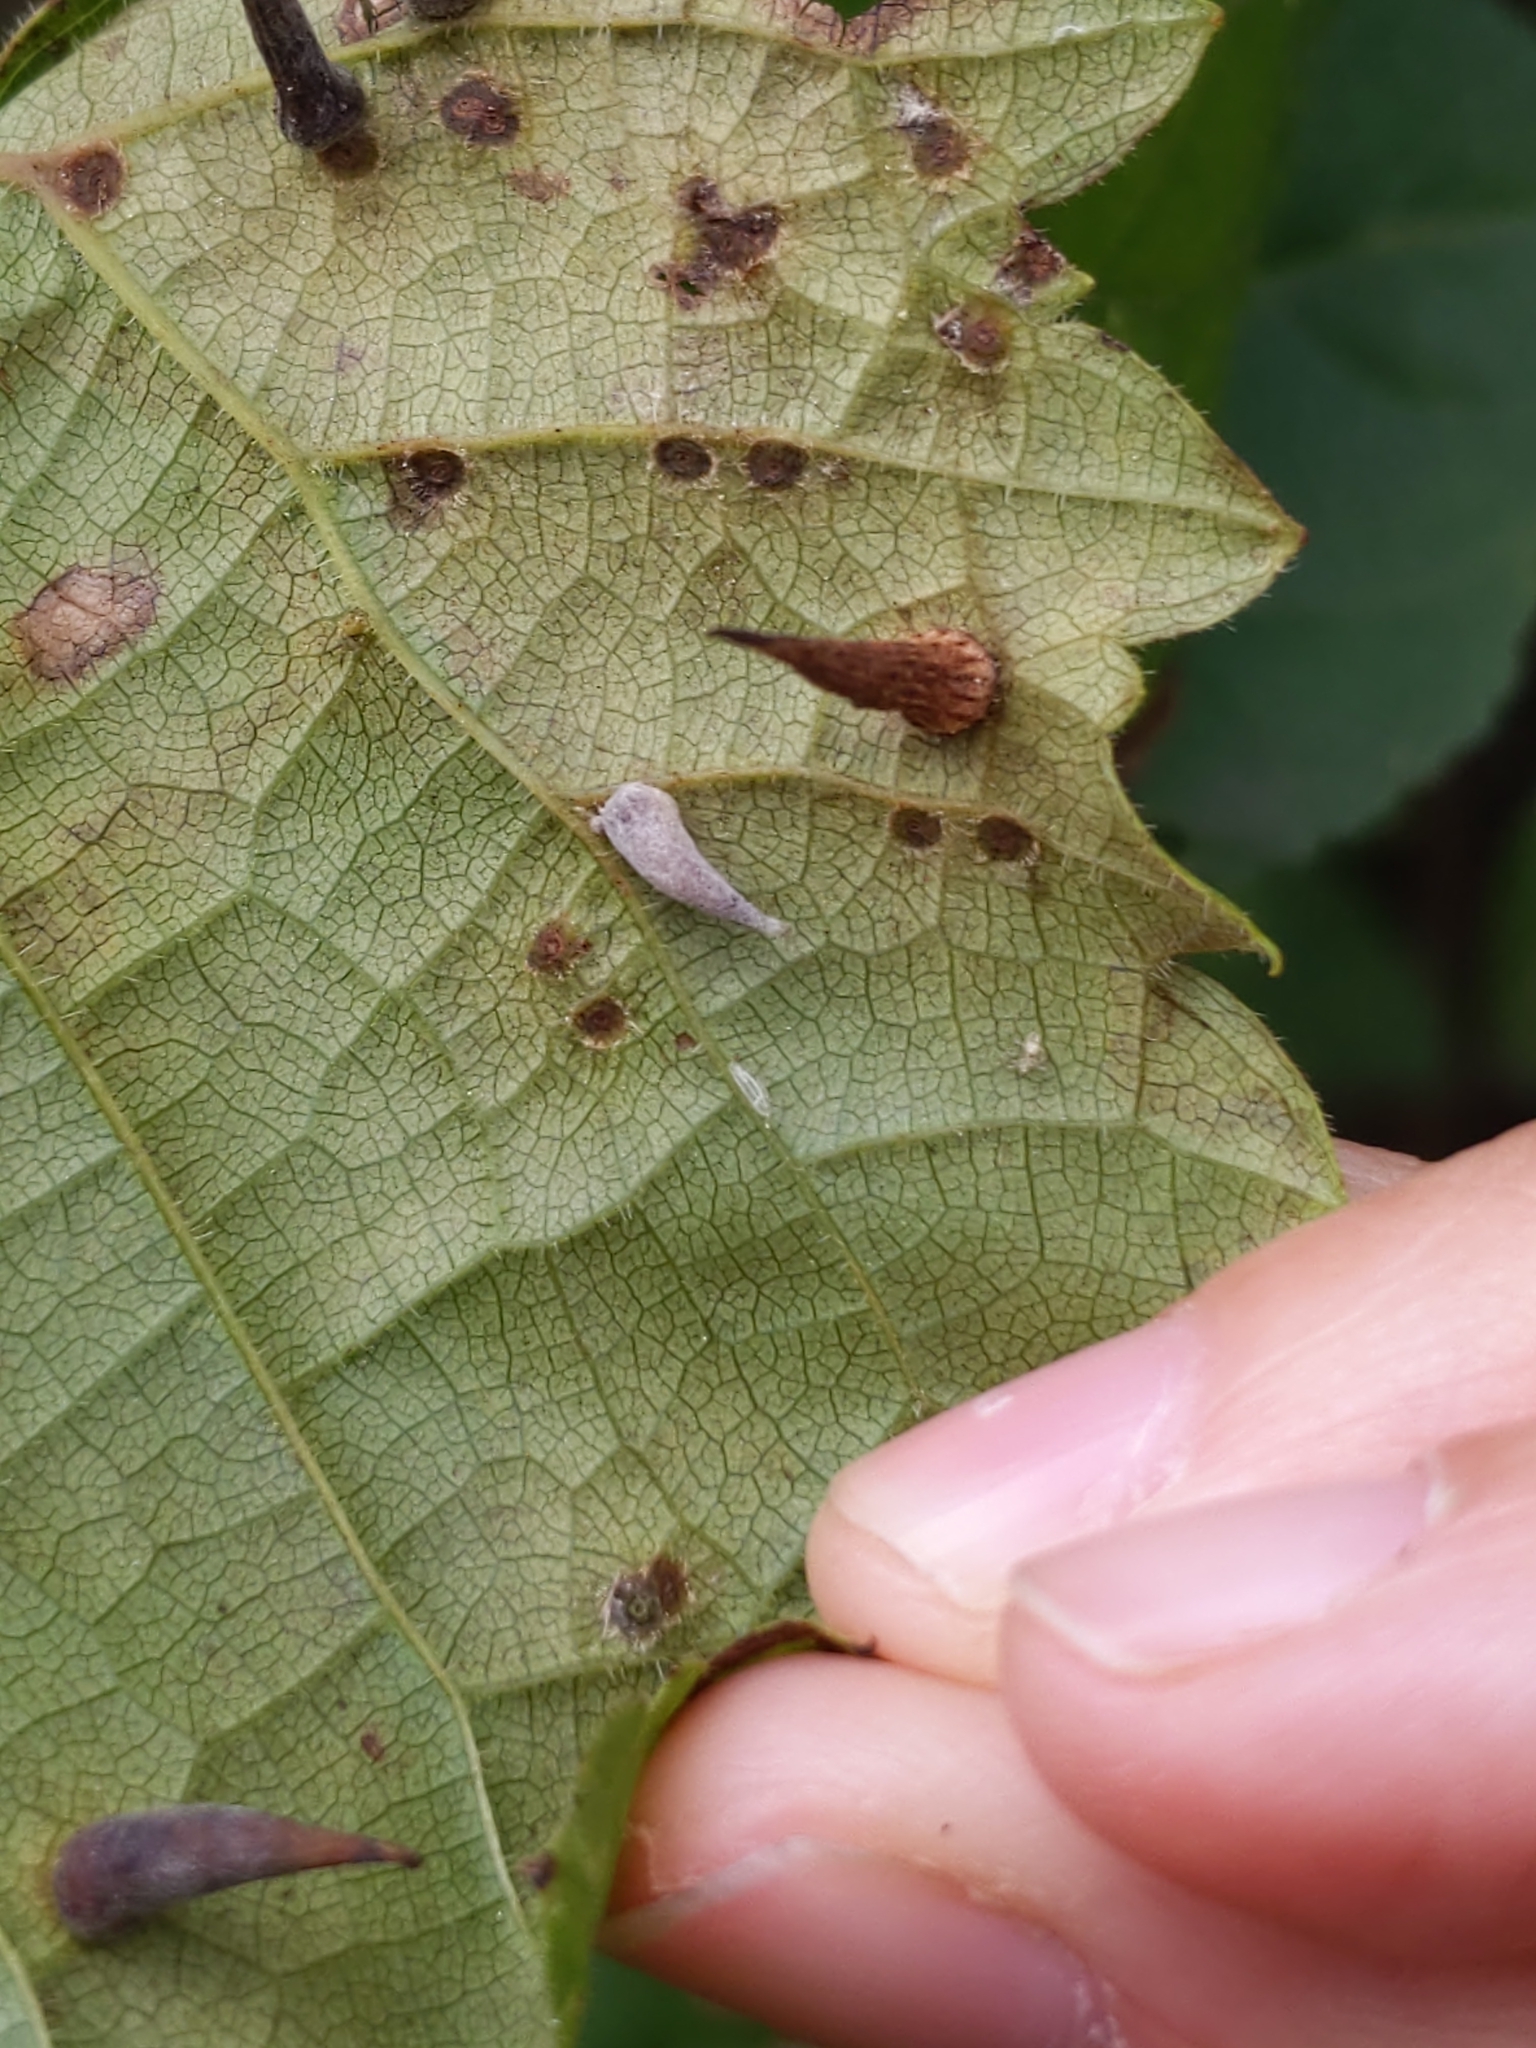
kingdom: Animalia
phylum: Arthropoda
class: Insecta
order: Diptera
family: Cecidomyiidae
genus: Ampelomyia
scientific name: Ampelomyia viticola
